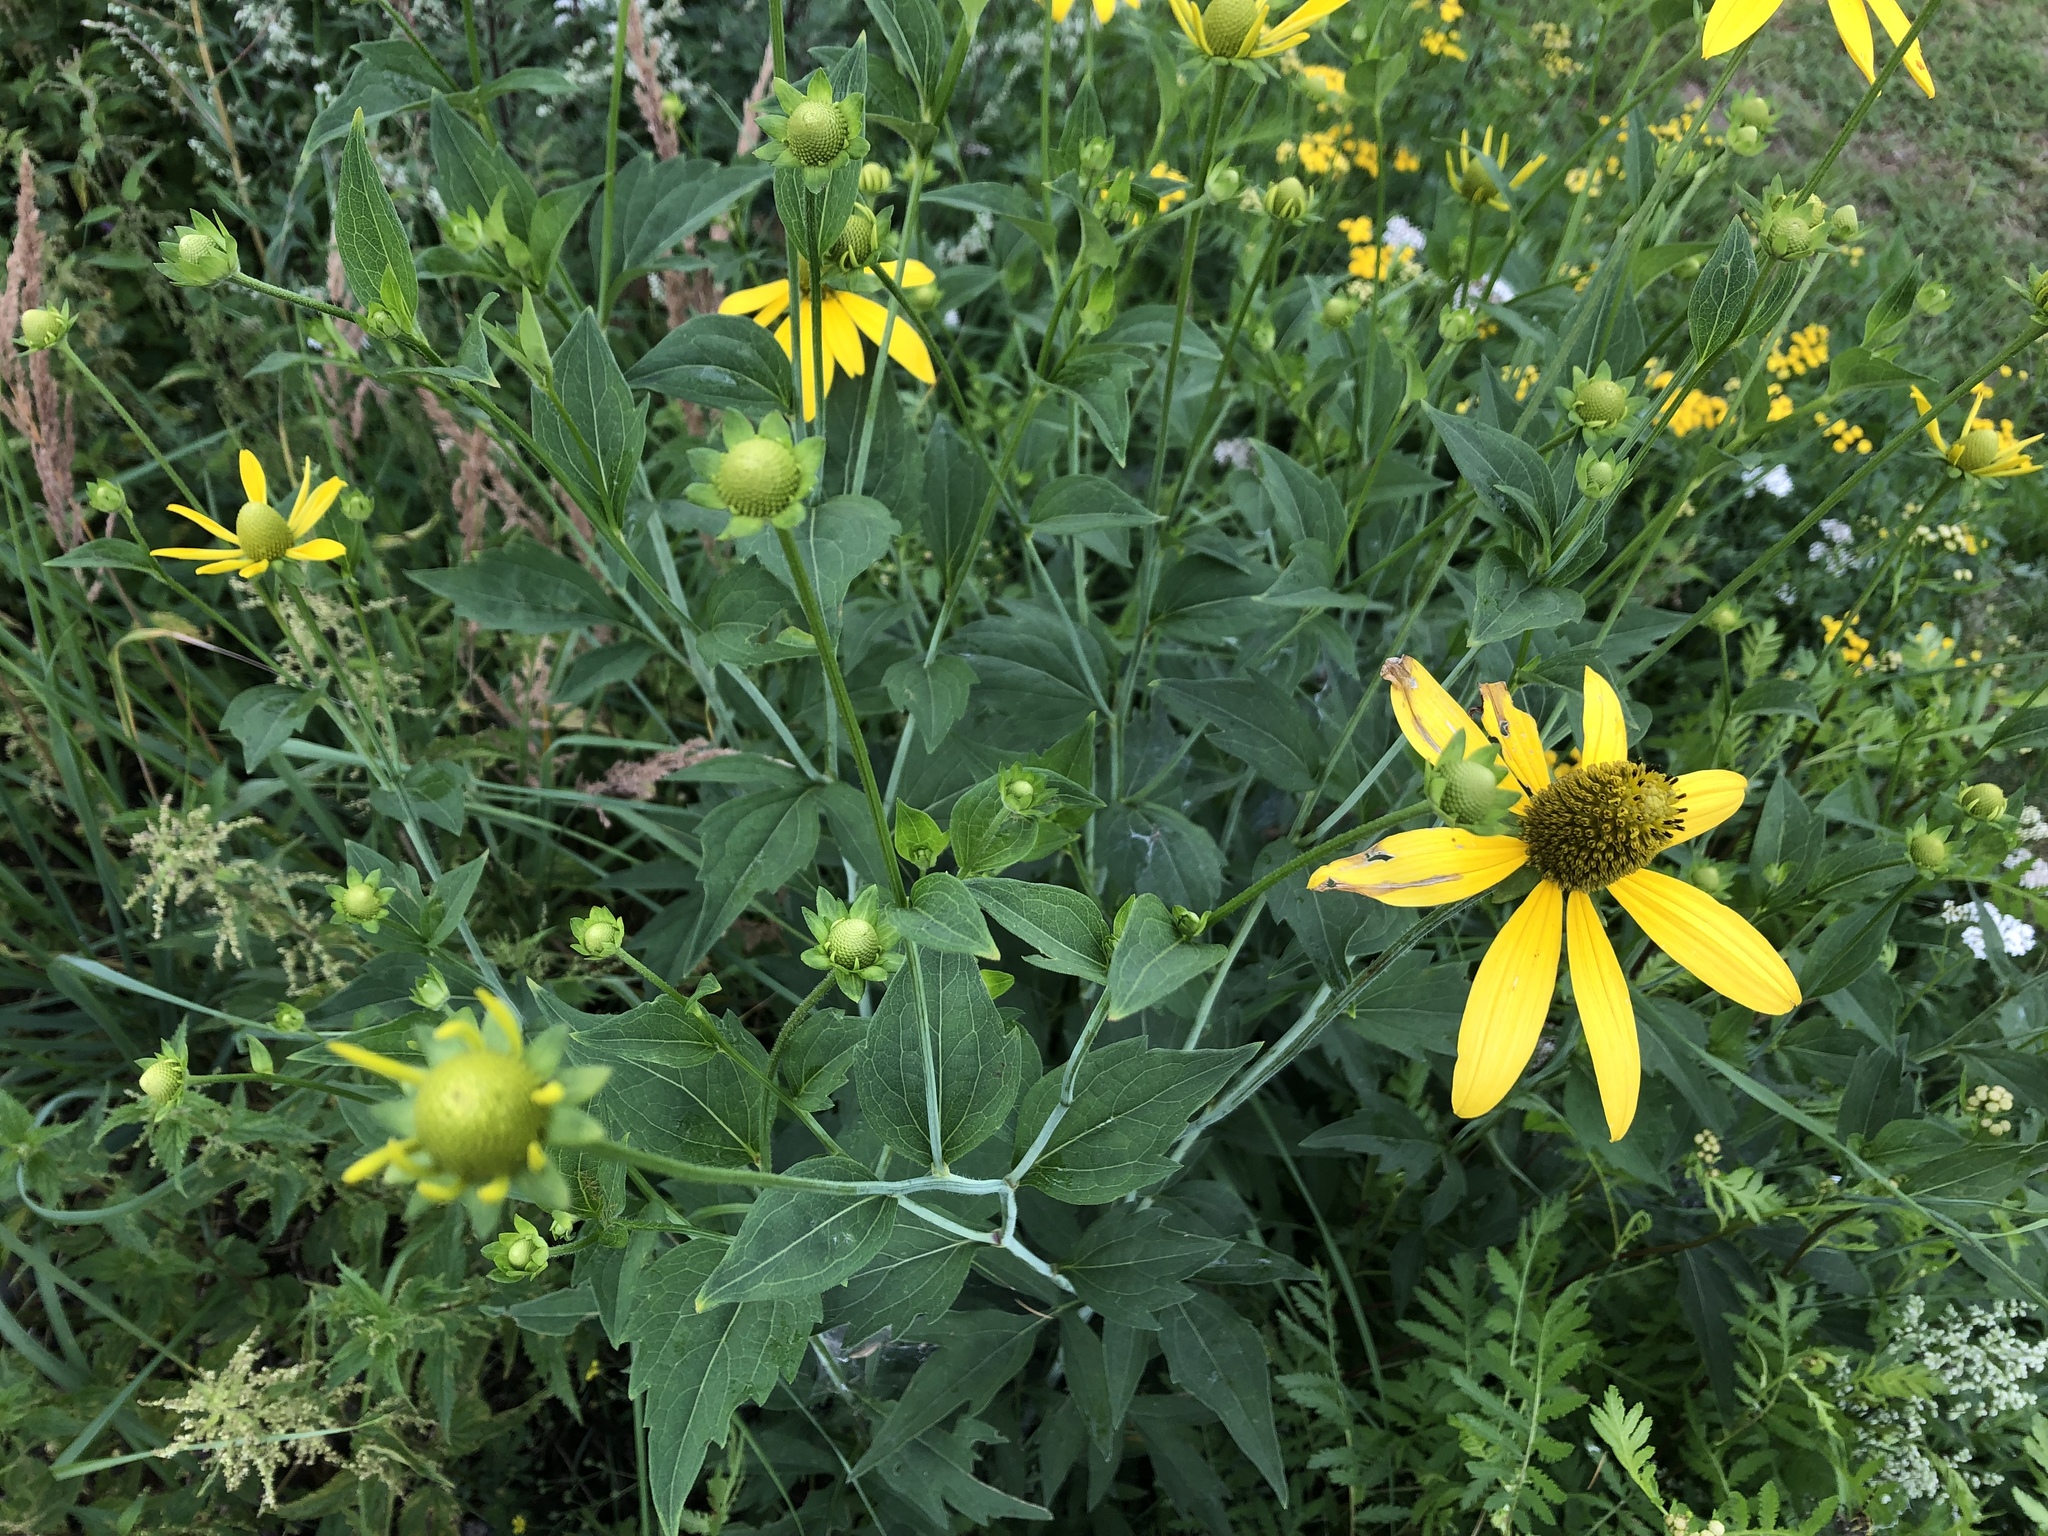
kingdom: Plantae
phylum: Tracheophyta
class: Magnoliopsida
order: Asterales
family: Asteraceae
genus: Rudbeckia
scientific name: Rudbeckia laciniata
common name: Coneflower
